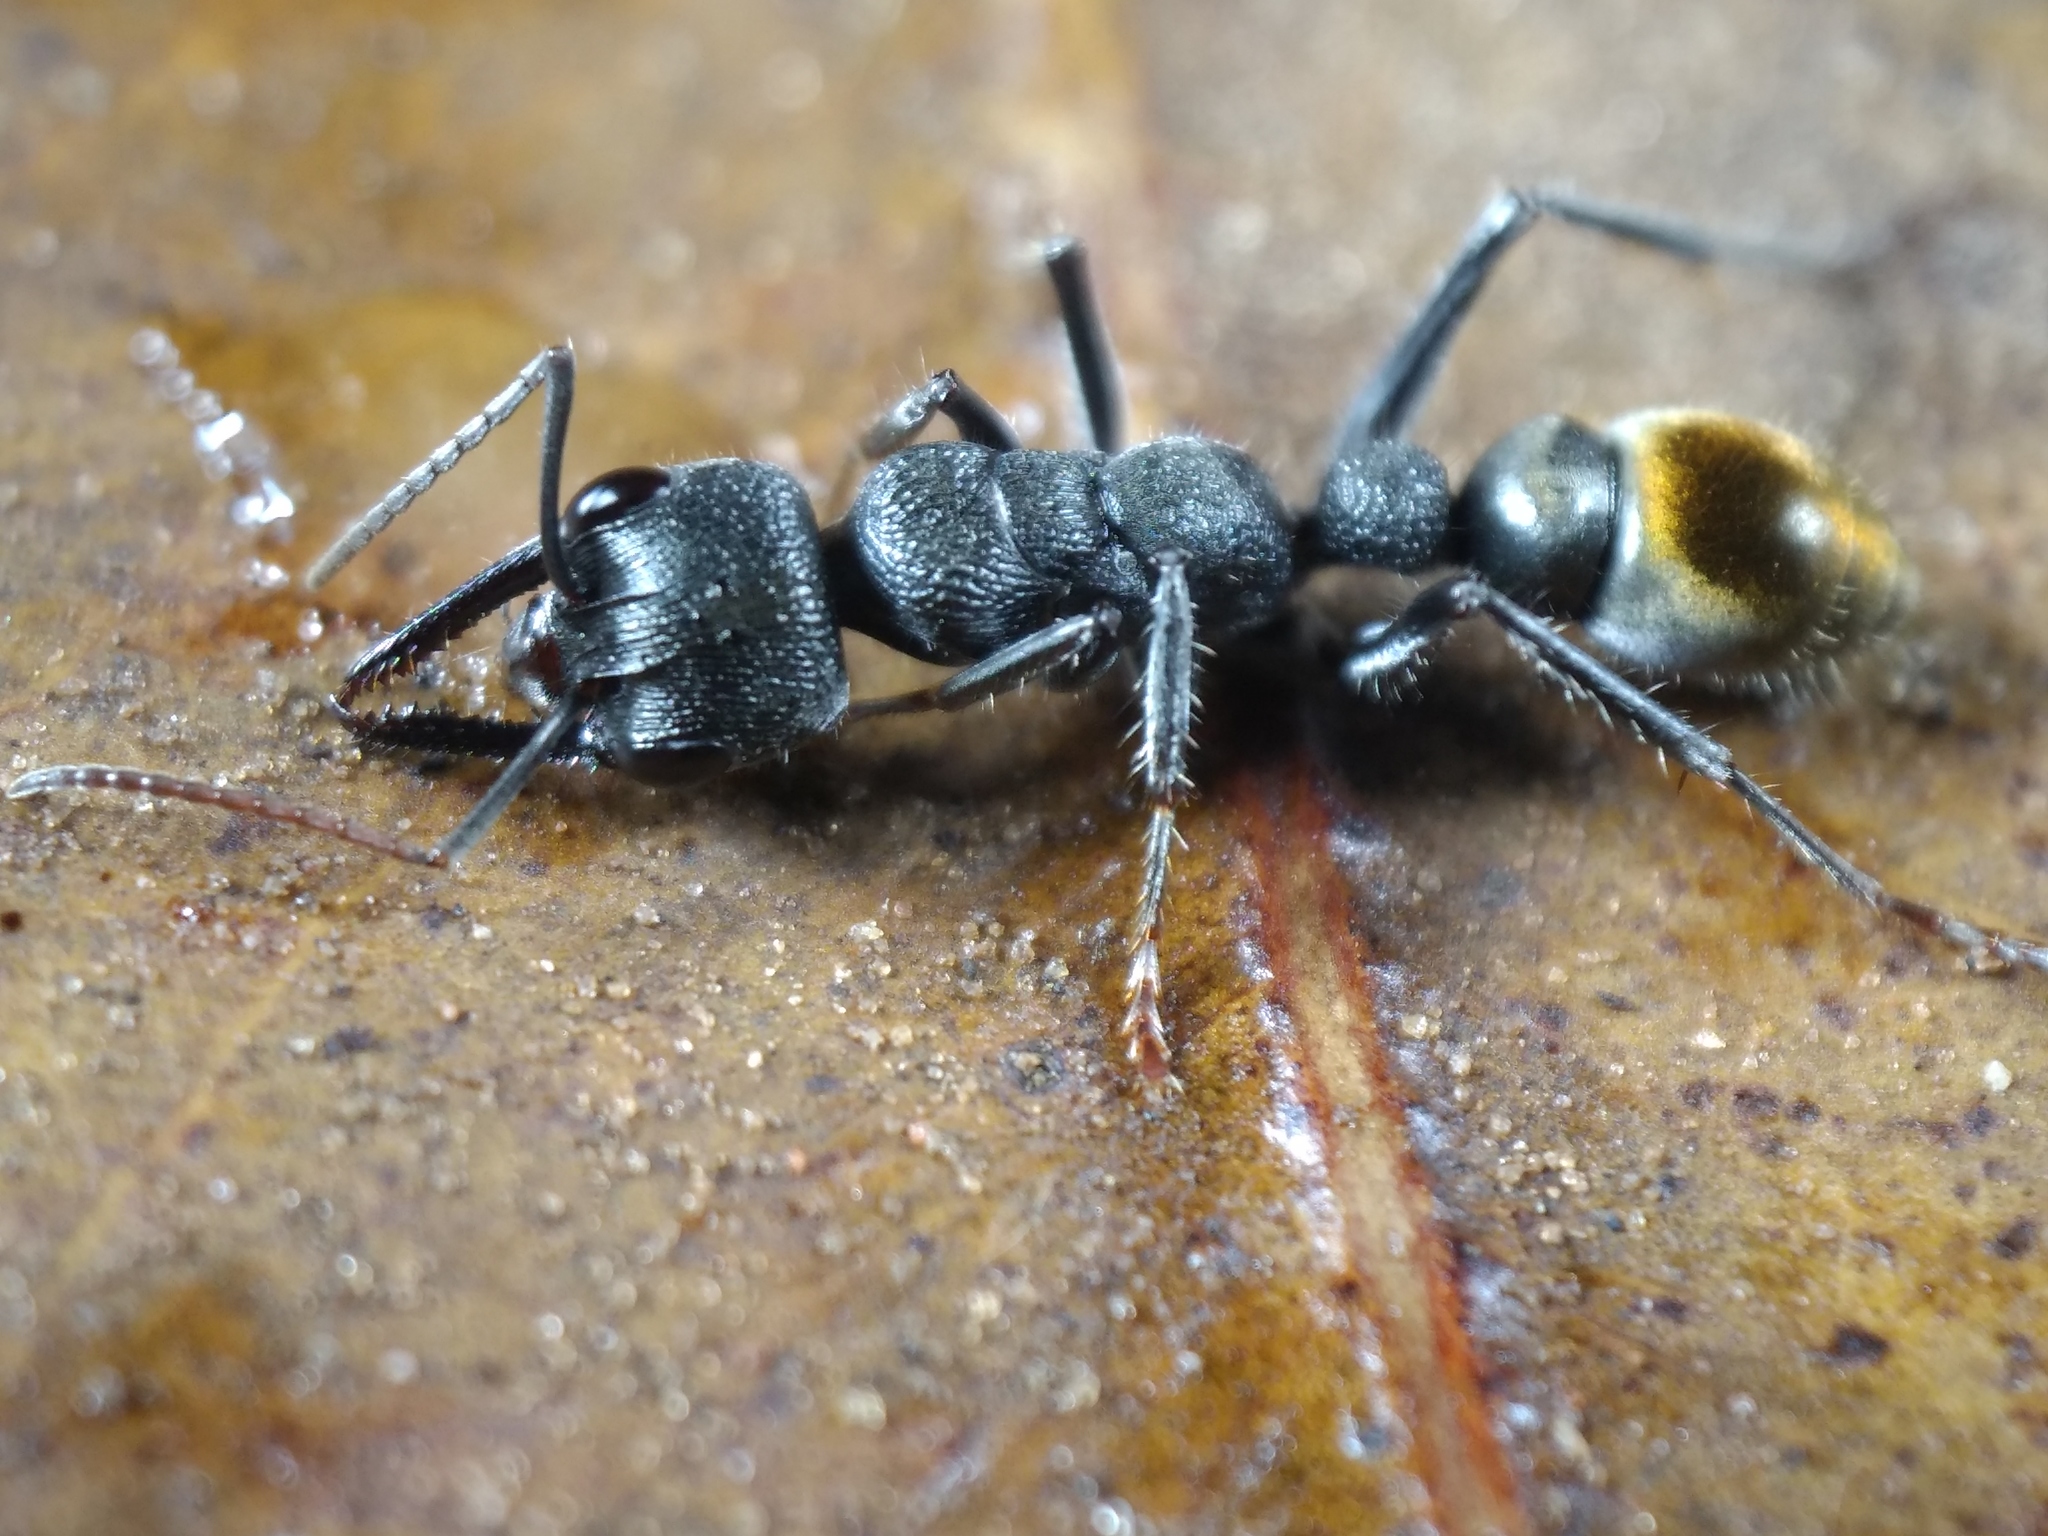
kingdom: Animalia
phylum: Arthropoda
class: Insecta
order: Hymenoptera
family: Formicidae
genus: Myrmecia
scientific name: Myrmecia gilberti
